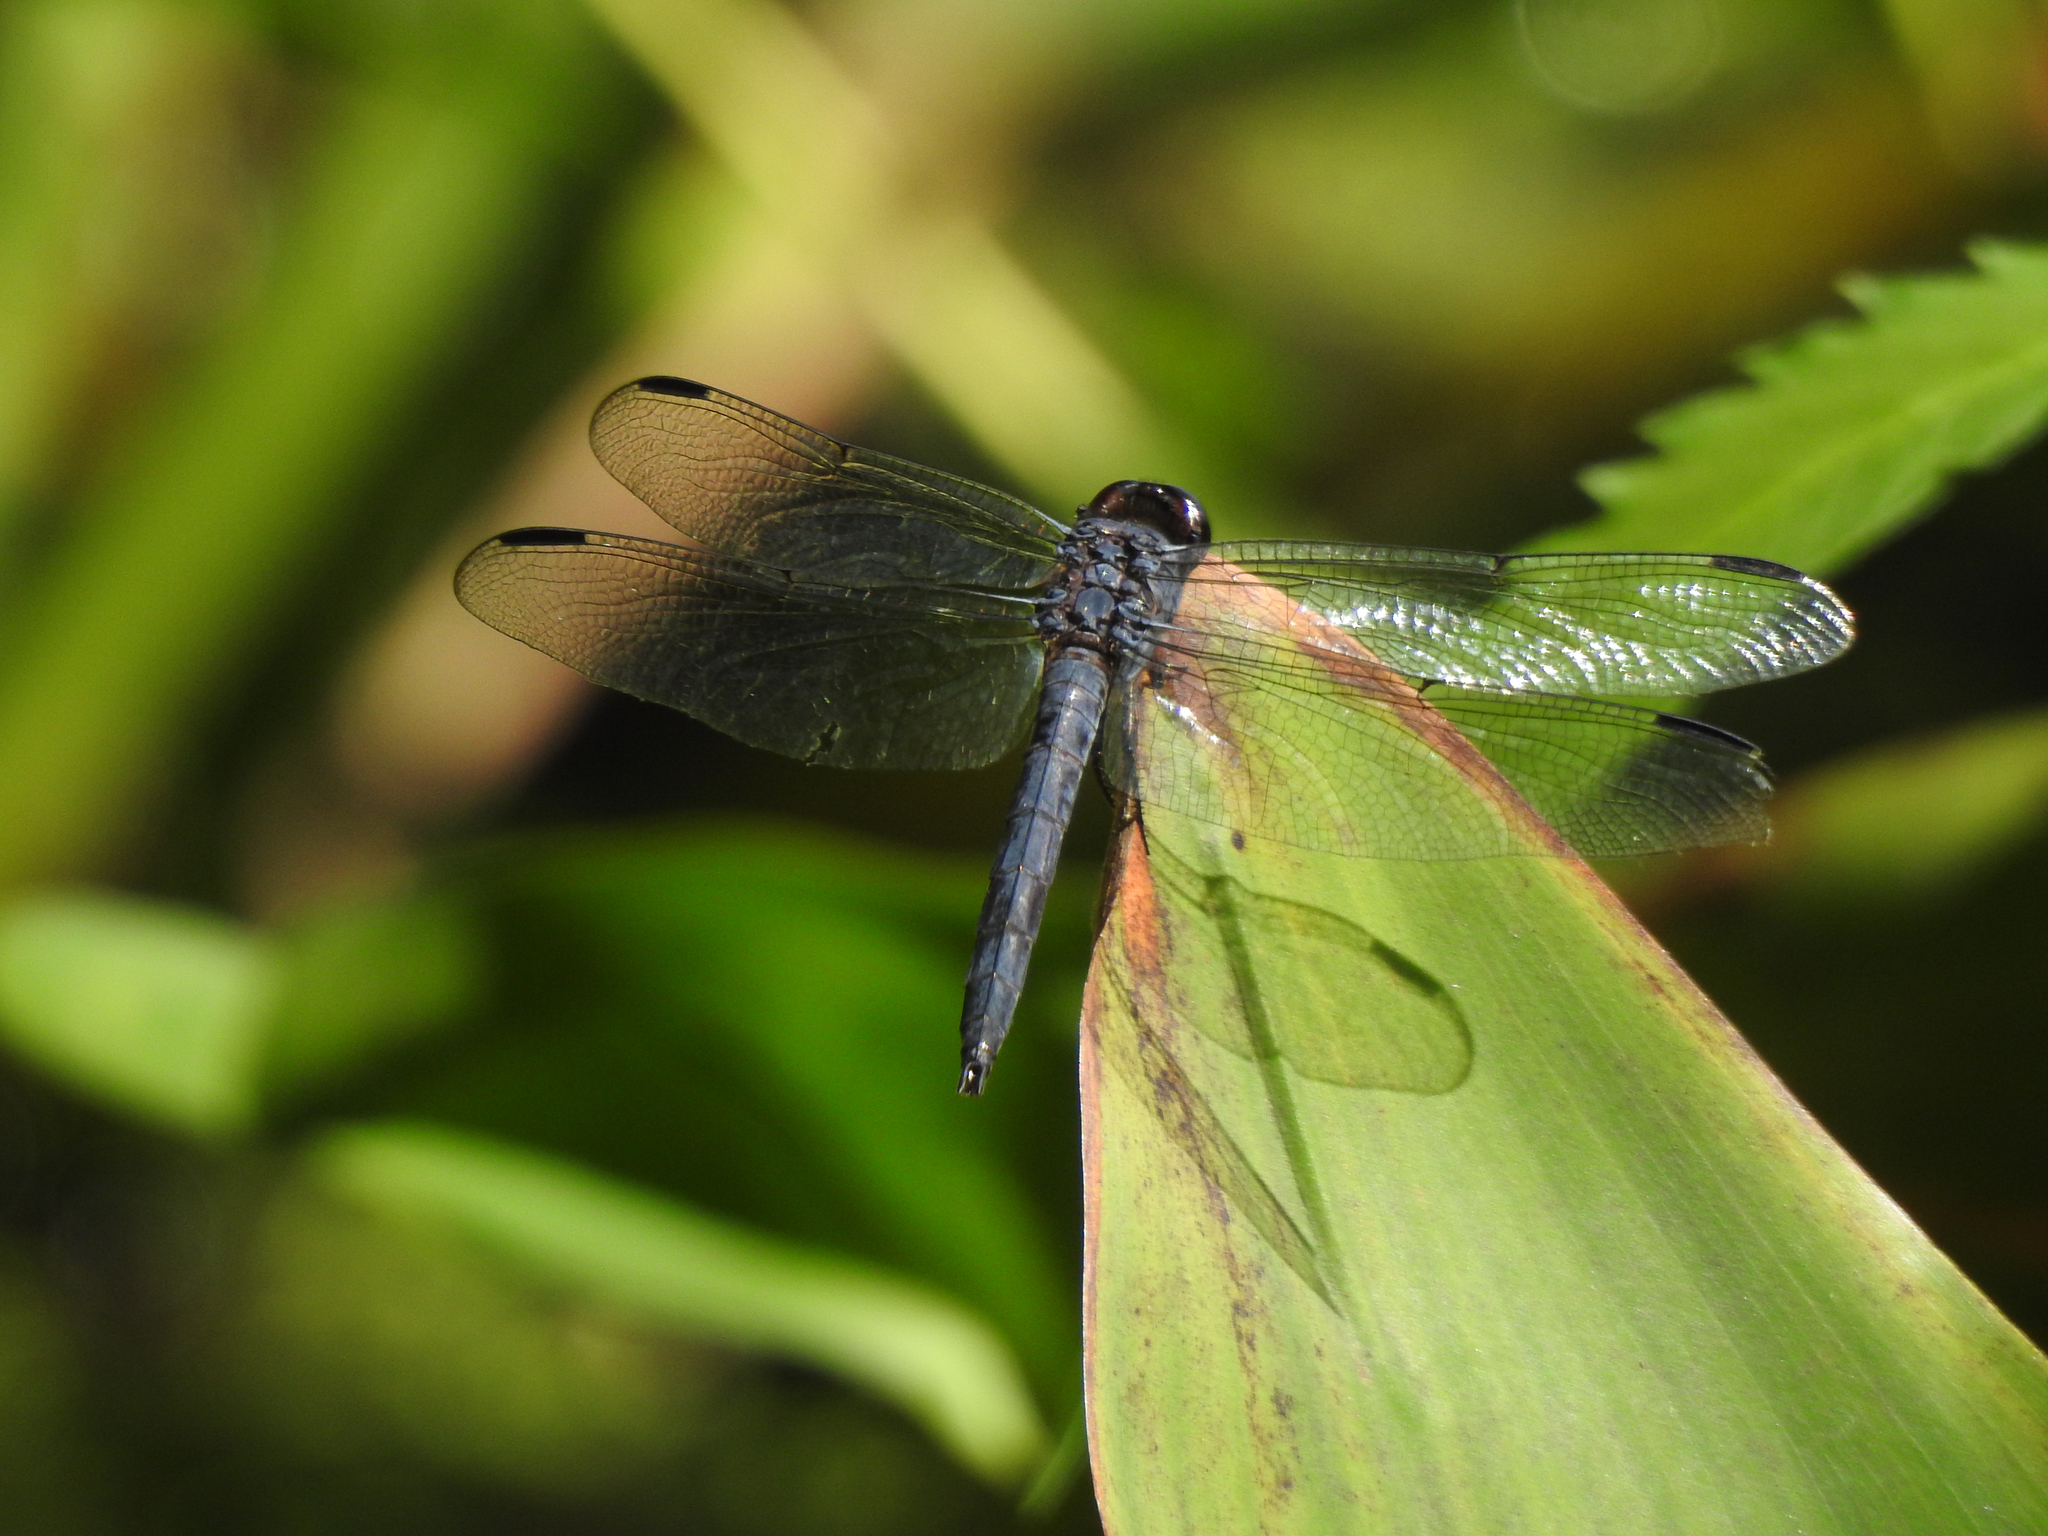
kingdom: Animalia
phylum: Arthropoda
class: Insecta
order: Odonata
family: Libellulidae
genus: Libellula
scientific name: Libellula incesta
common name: Slaty skimmer
